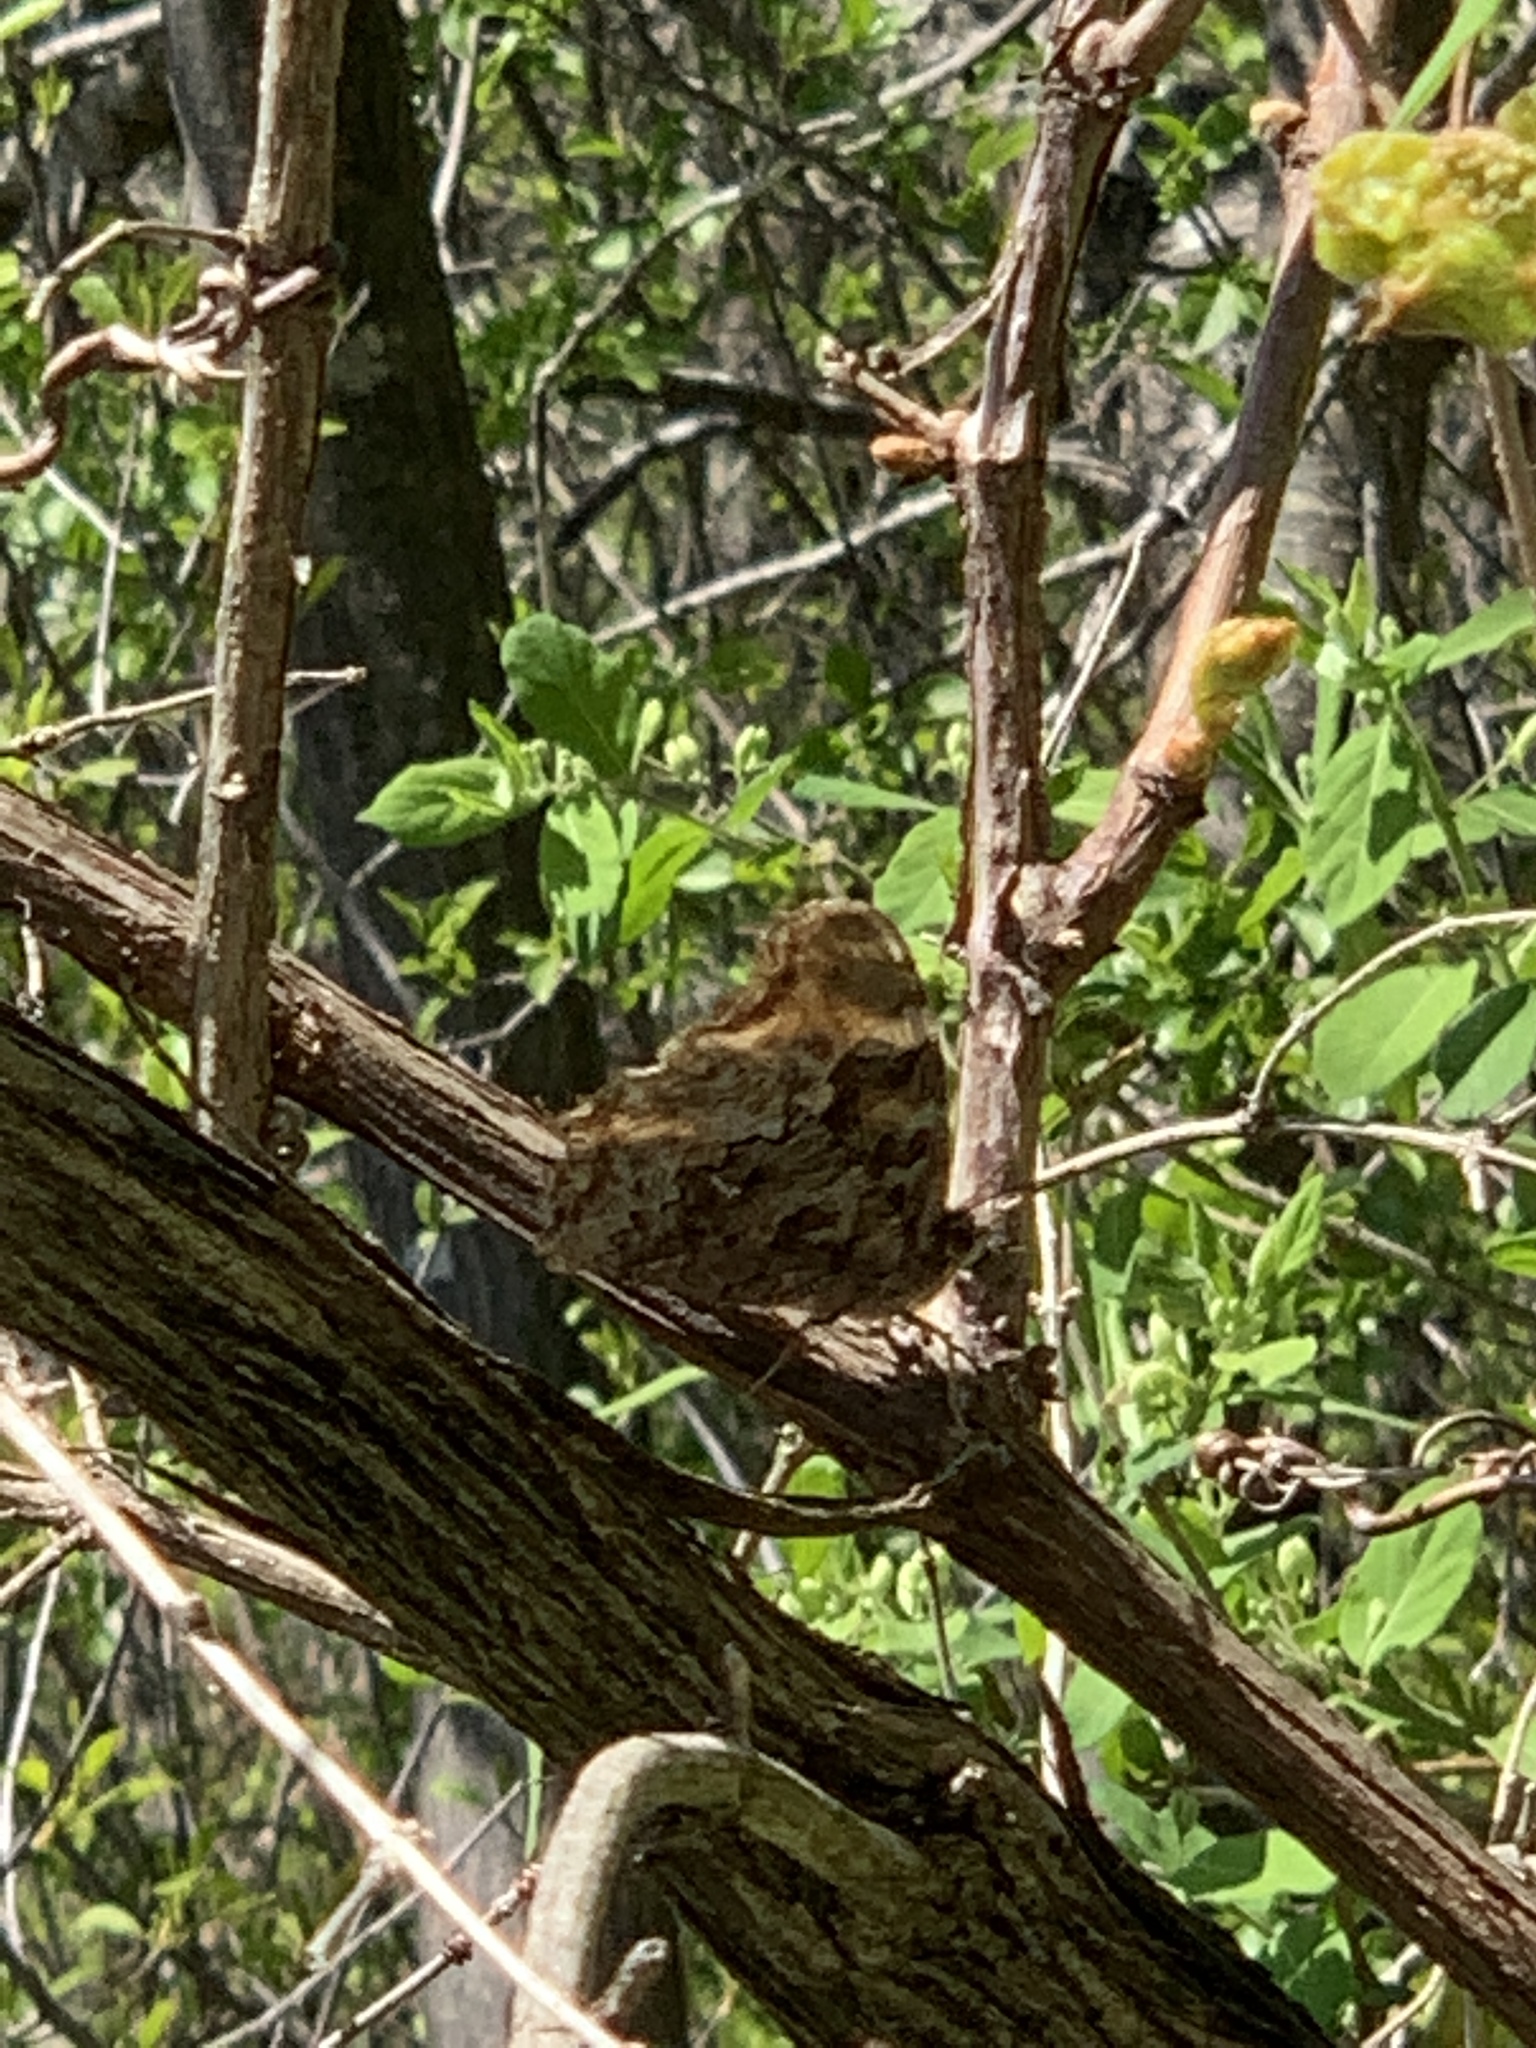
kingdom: Animalia
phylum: Arthropoda
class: Insecta
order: Lepidoptera
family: Nymphalidae
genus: Polygonia
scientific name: Polygonia vaualbum
